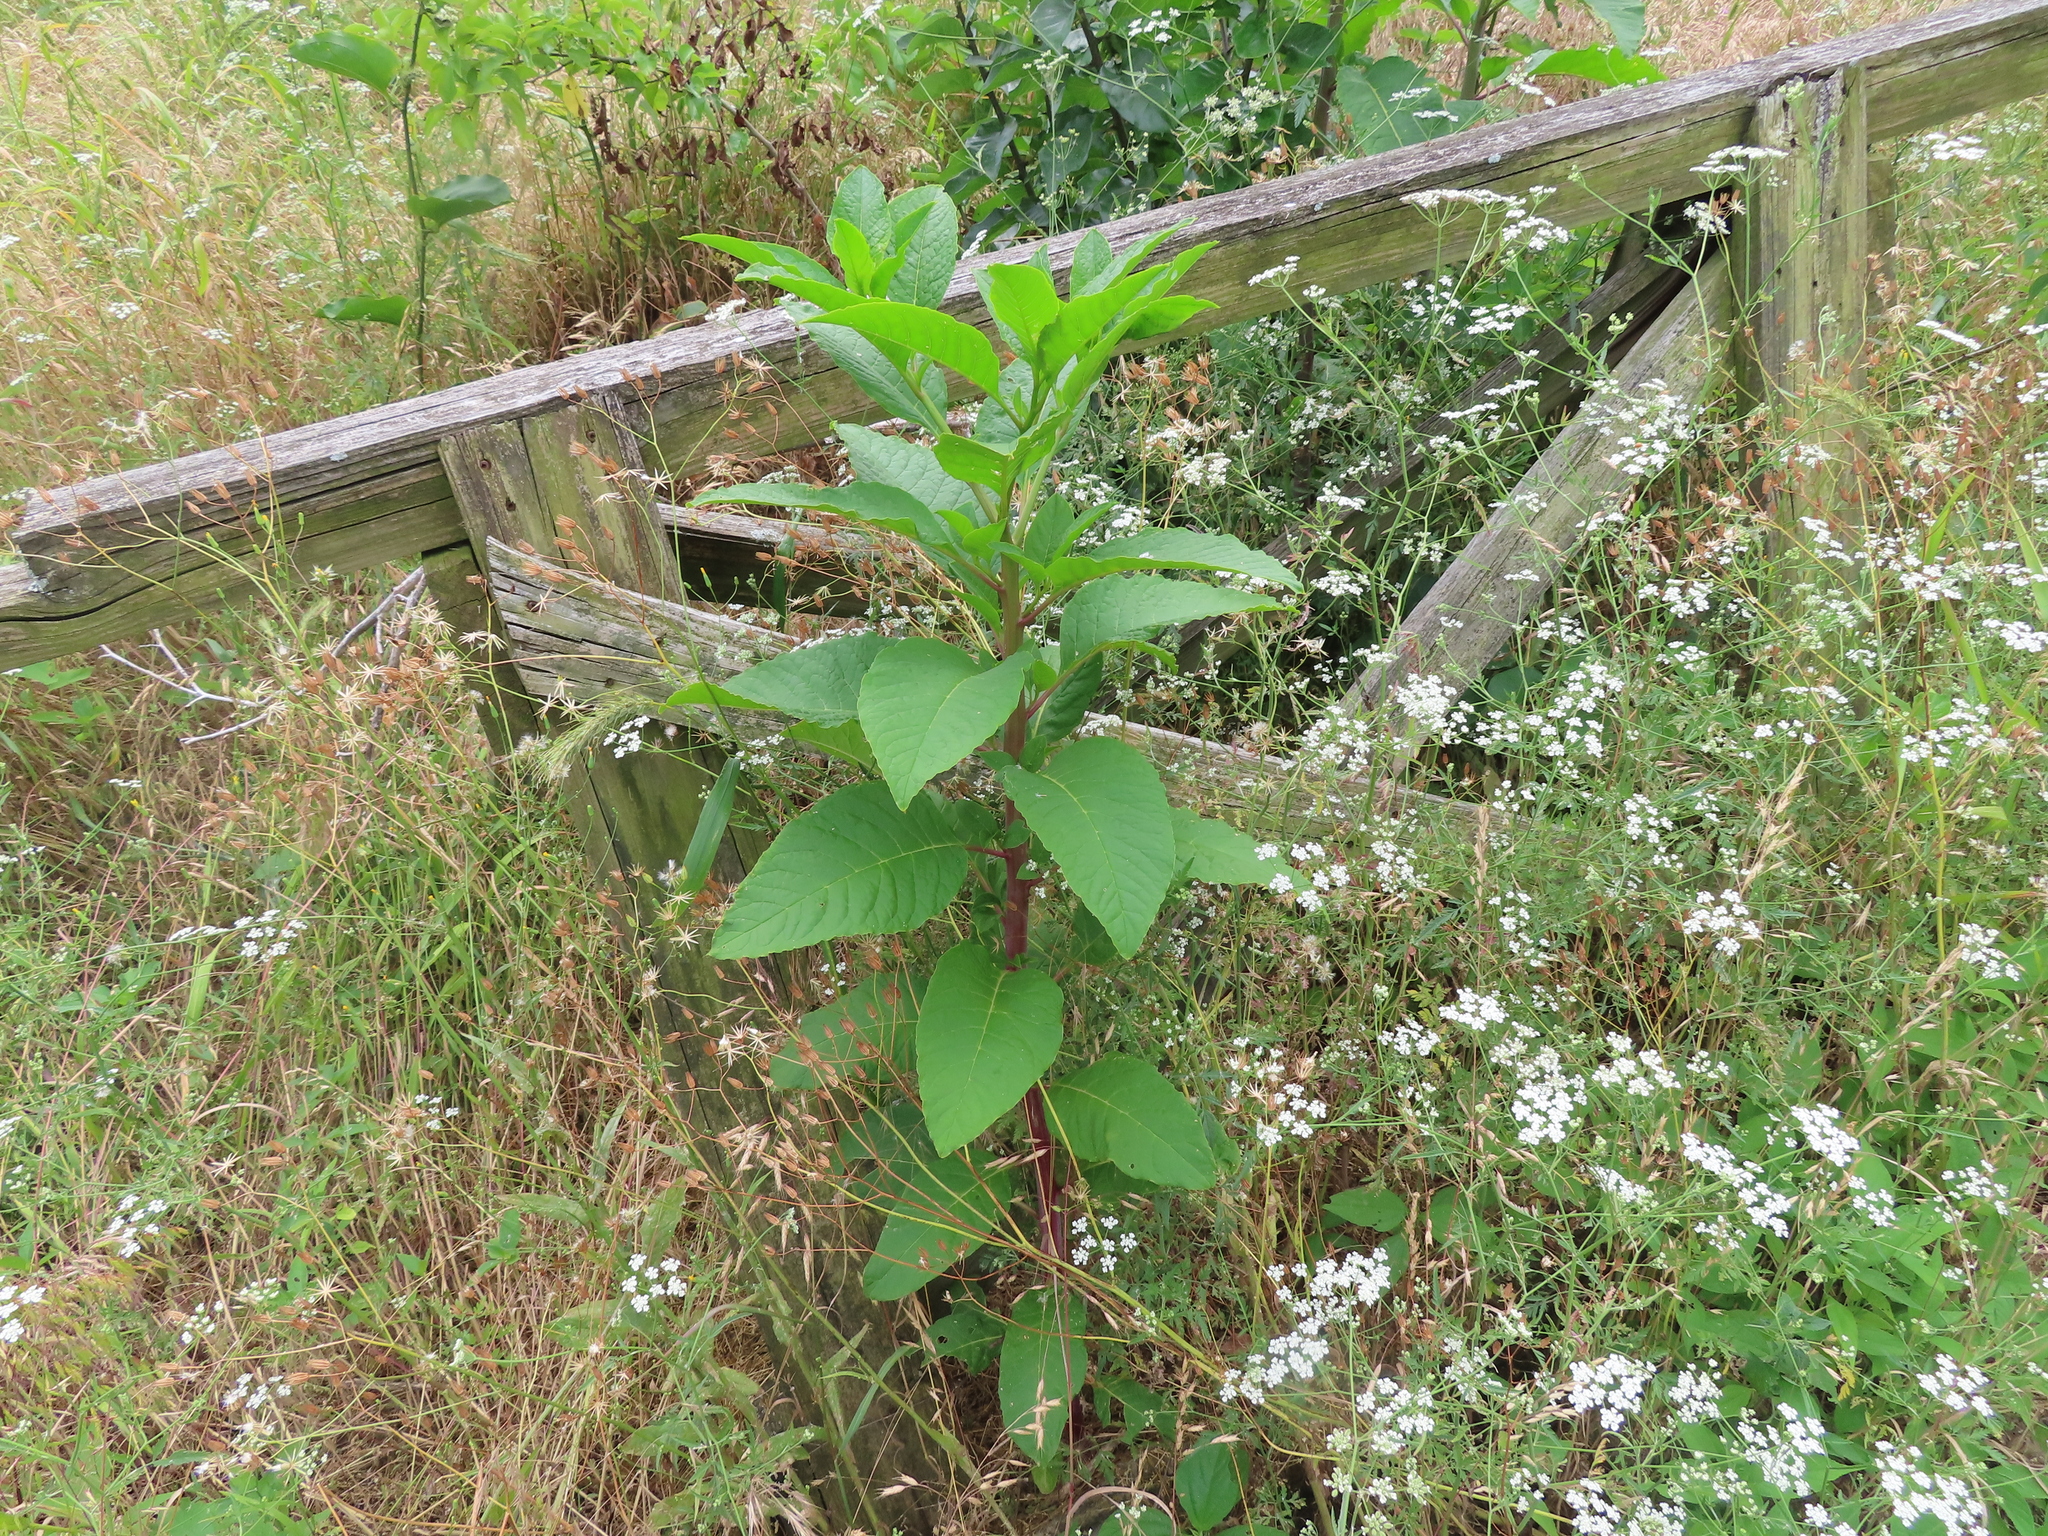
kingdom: Plantae
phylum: Tracheophyta
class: Magnoliopsida
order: Caryophyllales
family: Phytolaccaceae
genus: Phytolacca
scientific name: Phytolacca americana
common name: American pokeweed
